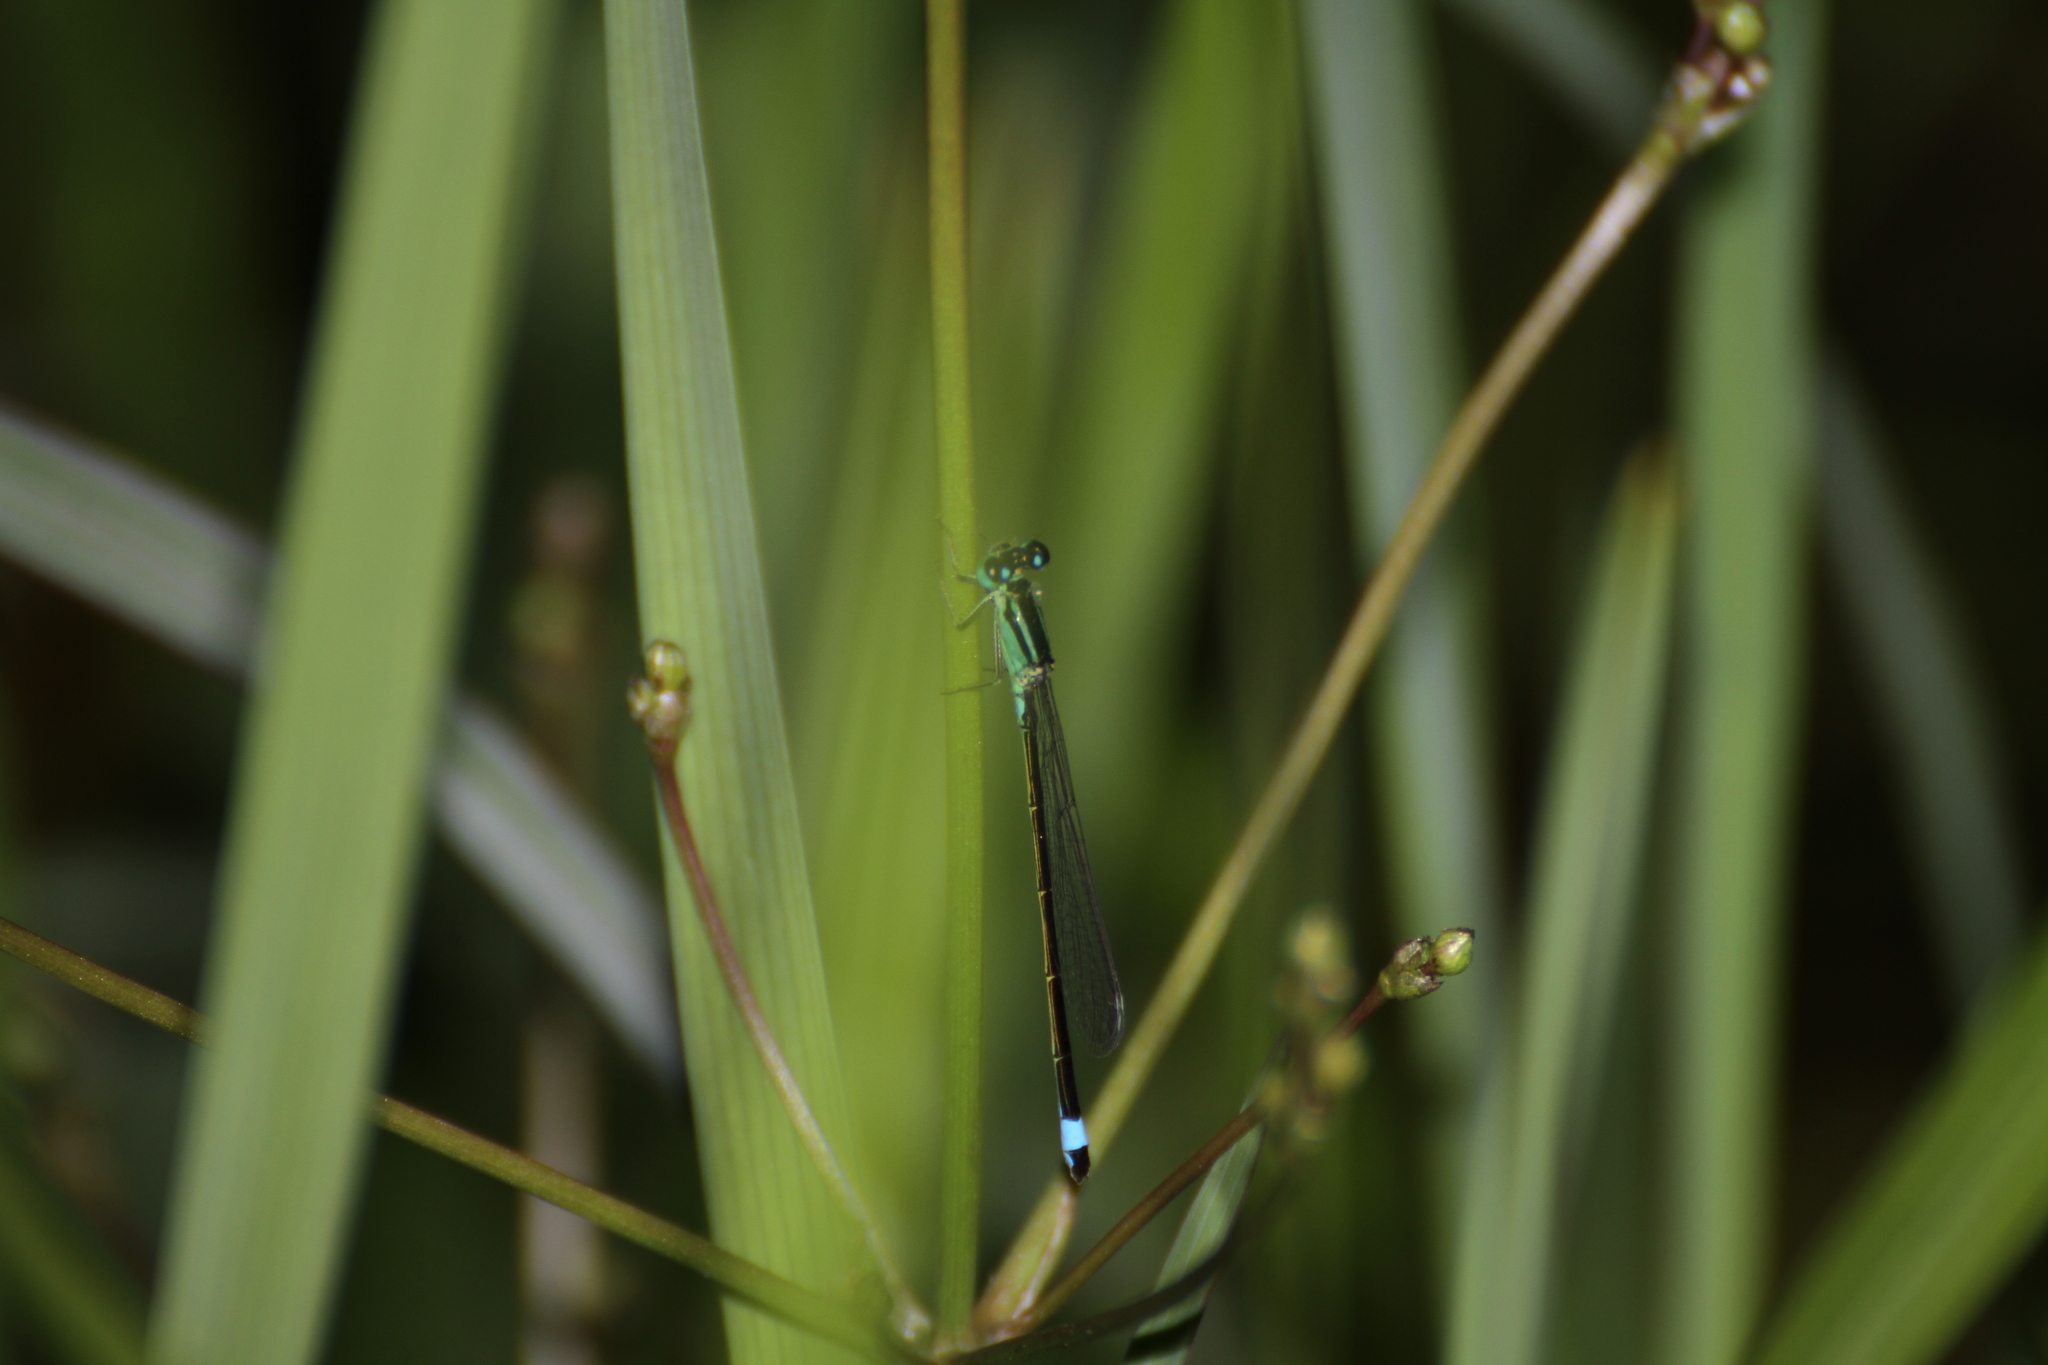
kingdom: Animalia
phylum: Arthropoda
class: Insecta
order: Odonata
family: Coenagrionidae
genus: Ischnura
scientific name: Ischnura elegans
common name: Blue-tailed damselfly
